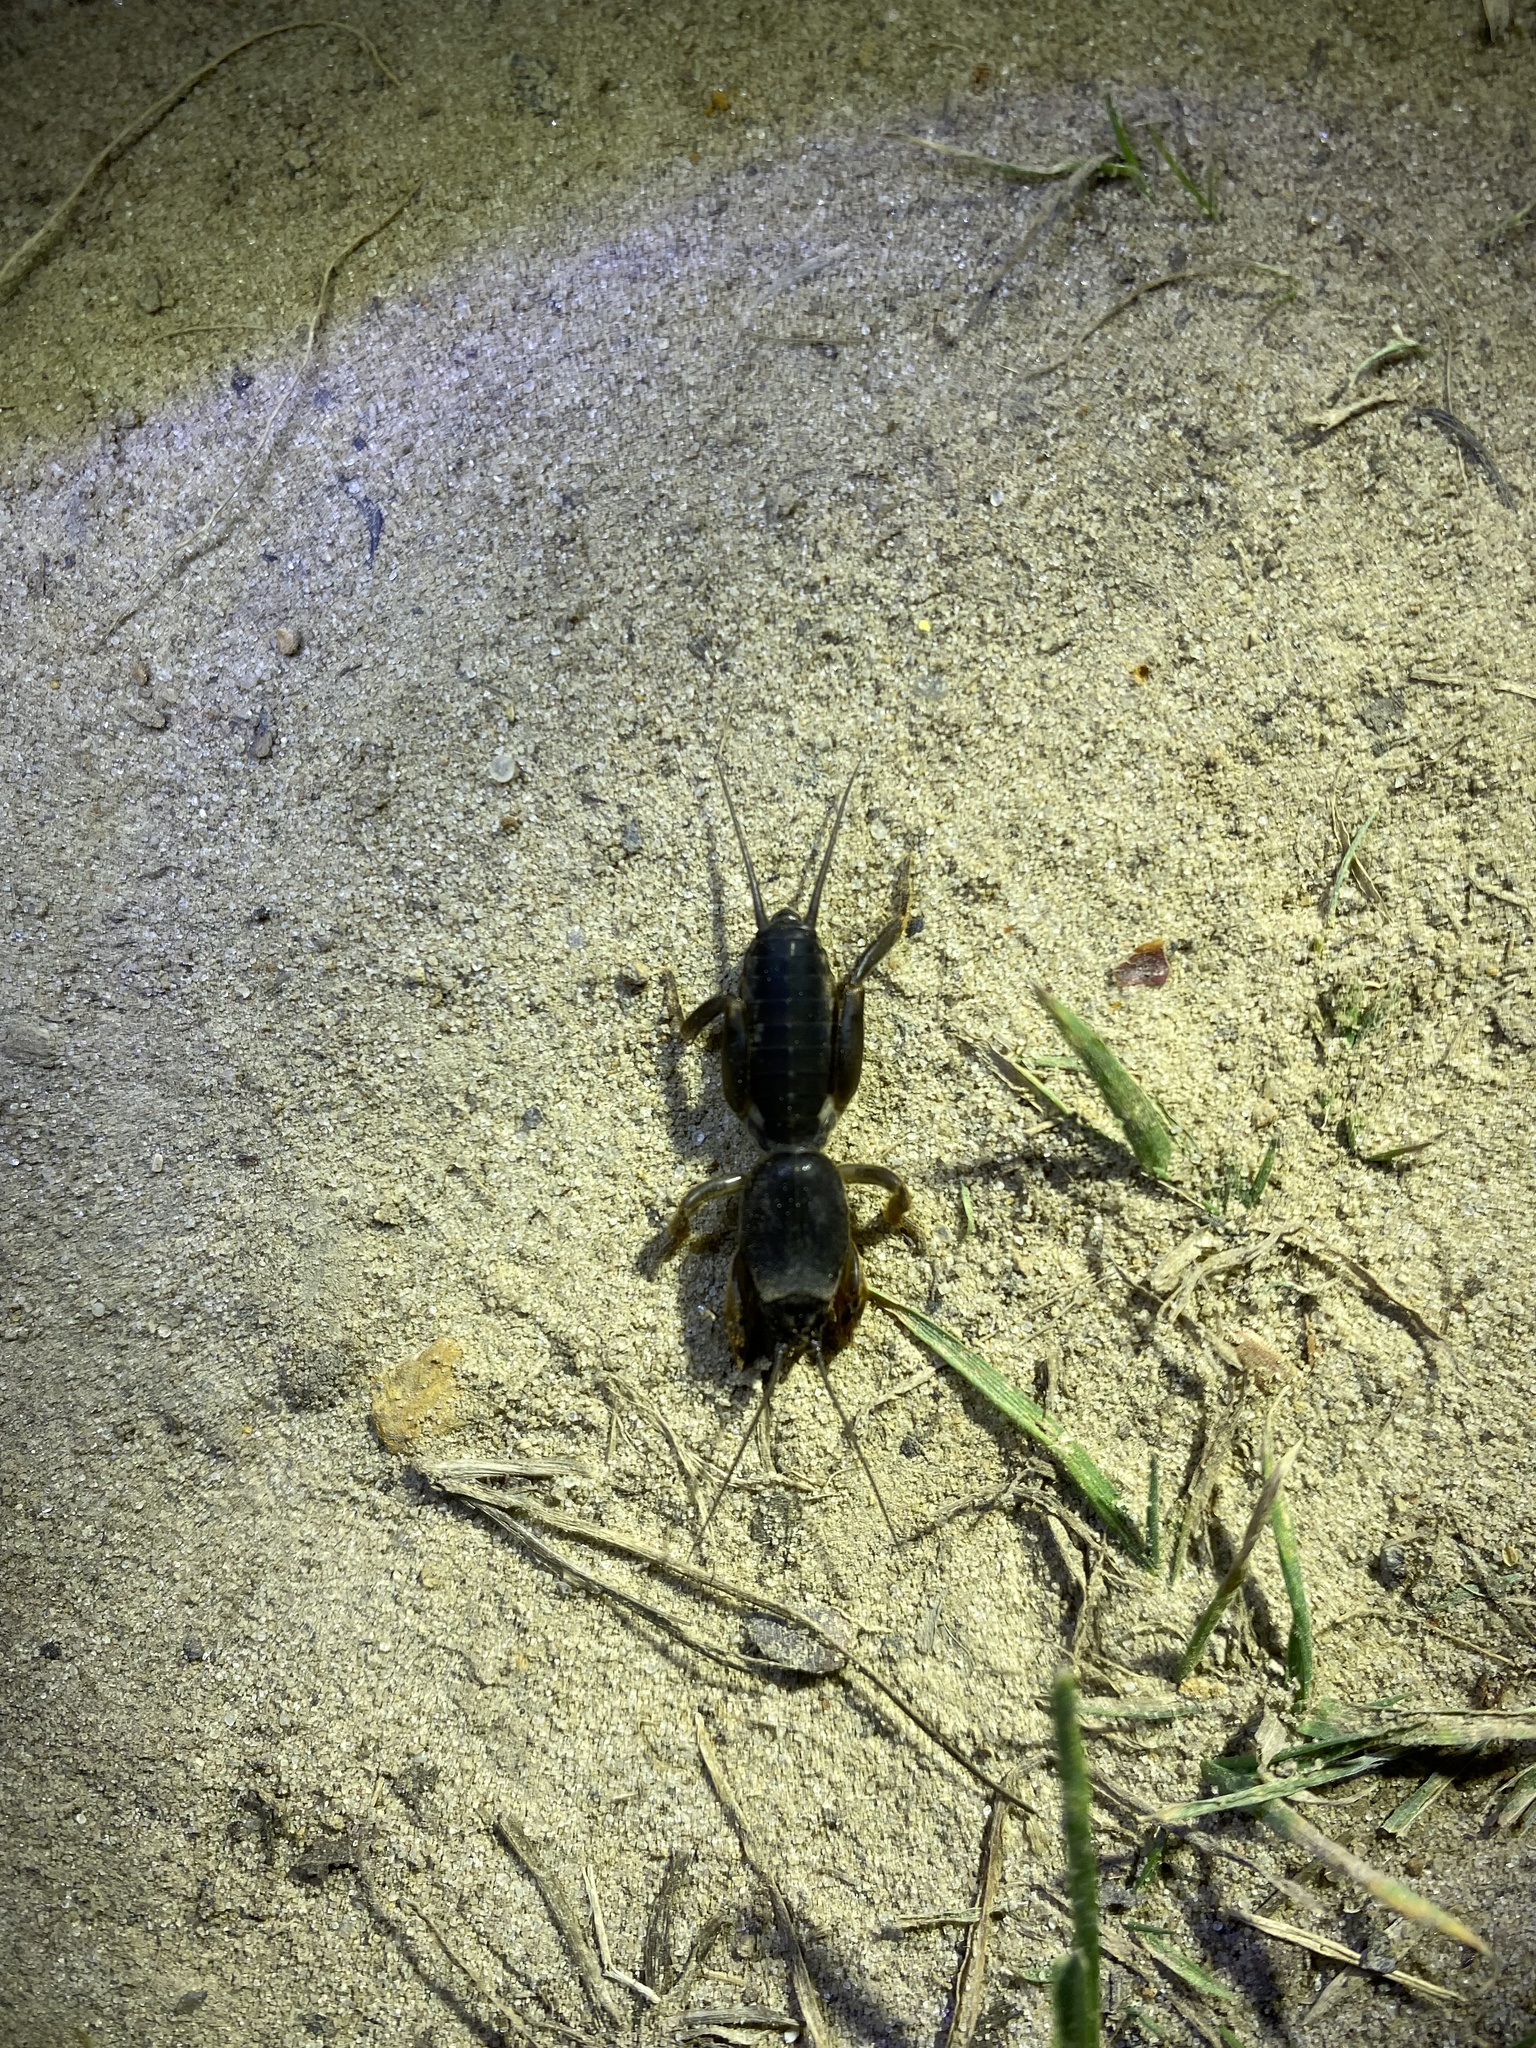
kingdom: Animalia
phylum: Arthropoda
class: Insecta
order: Orthoptera
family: Gryllotalpidae
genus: Gryllotalpa
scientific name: Gryllotalpa gryllotalpa
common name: European mole cricket
